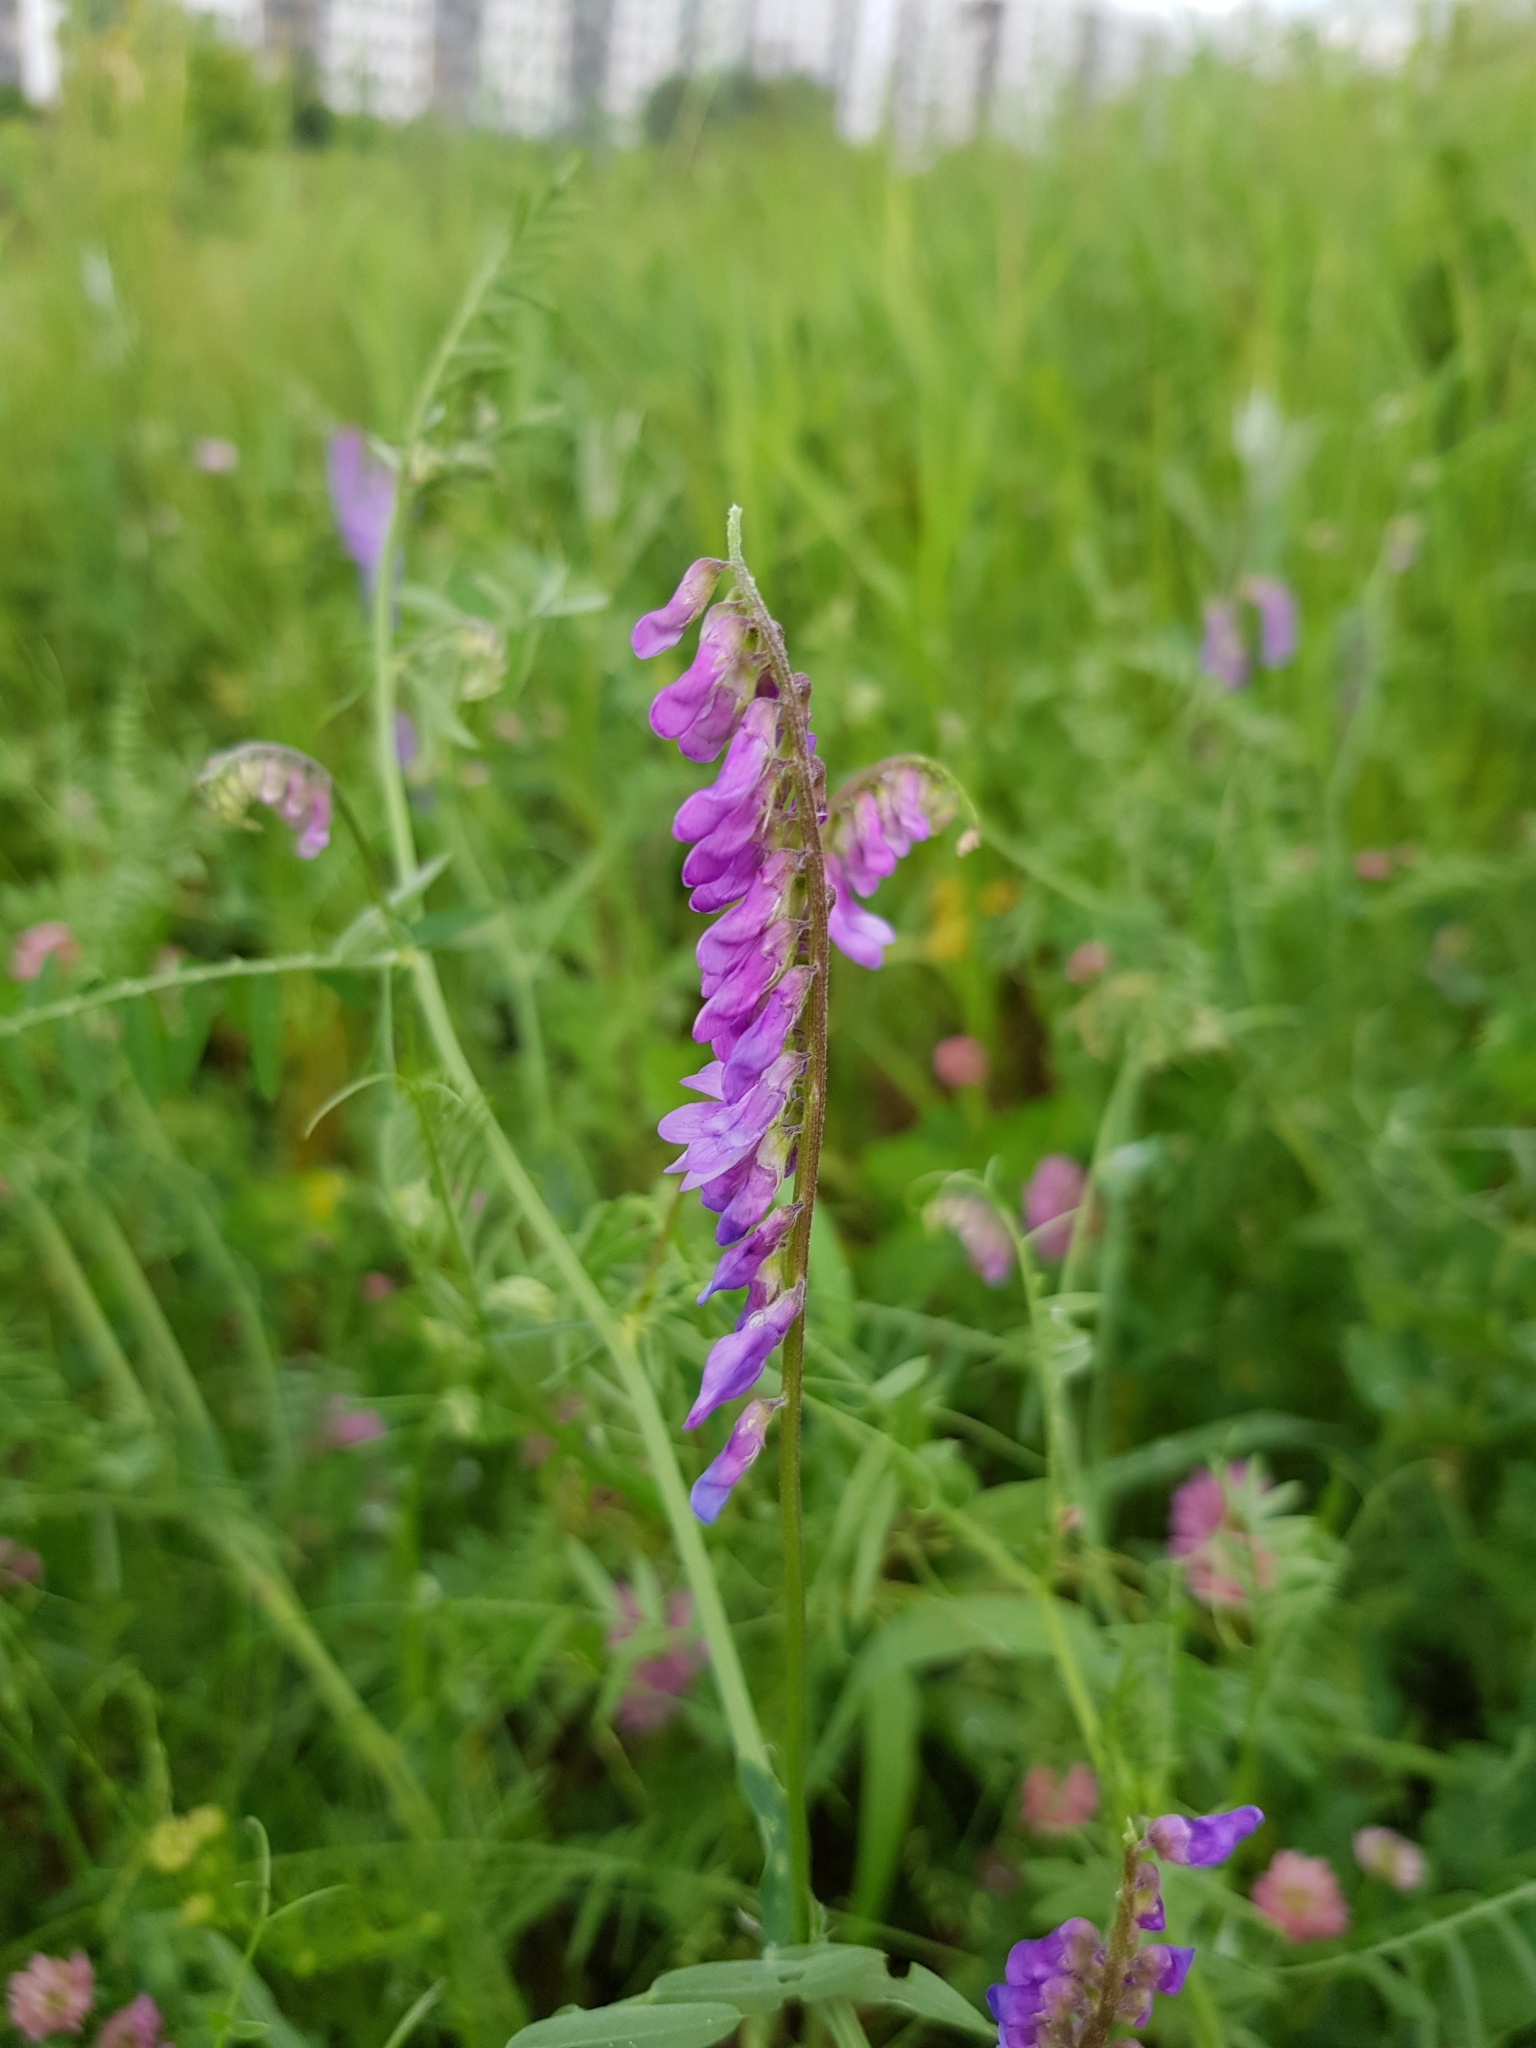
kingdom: Plantae
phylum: Tracheophyta
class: Magnoliopsida
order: Fabales
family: Fabaceae
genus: Vicia
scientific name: Vicia cracca
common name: Bird vetch
